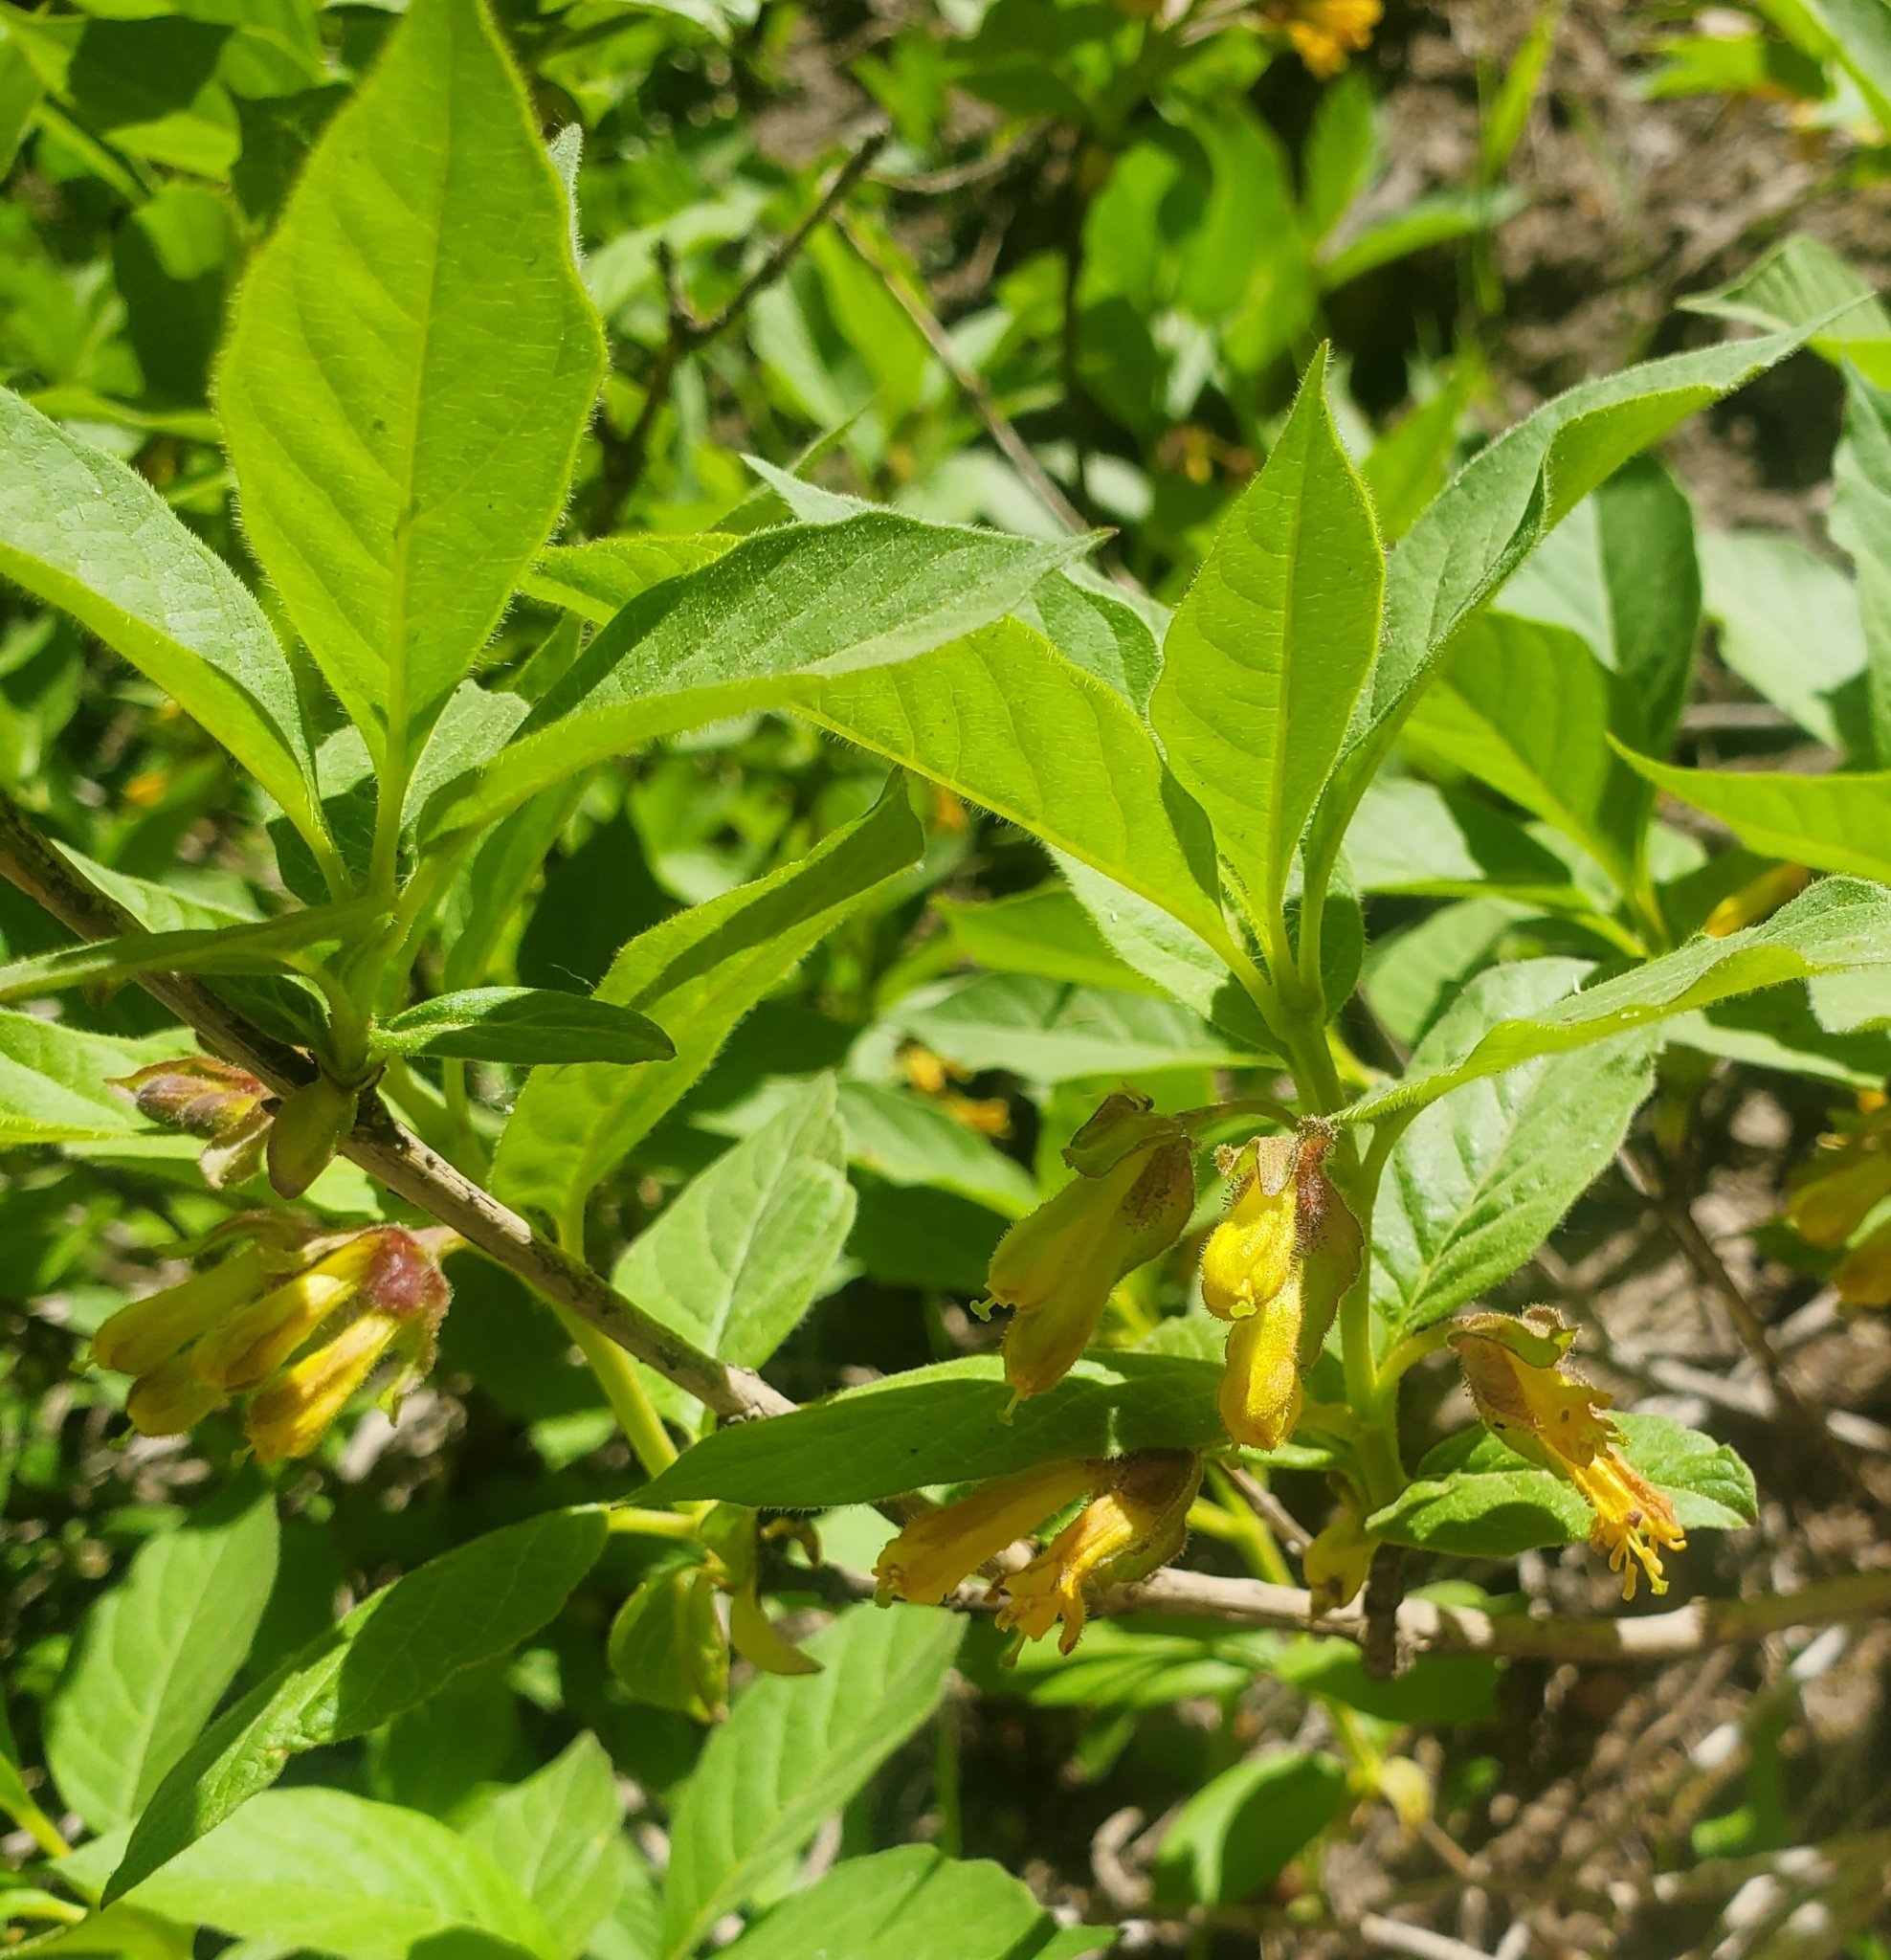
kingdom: Plantae
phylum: Tracheophyta
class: Magnoliopsida
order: Dipsacales
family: Caprifoliaceae
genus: Lonicera
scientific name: Lonicera involucrata
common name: Californian honeysuckle
